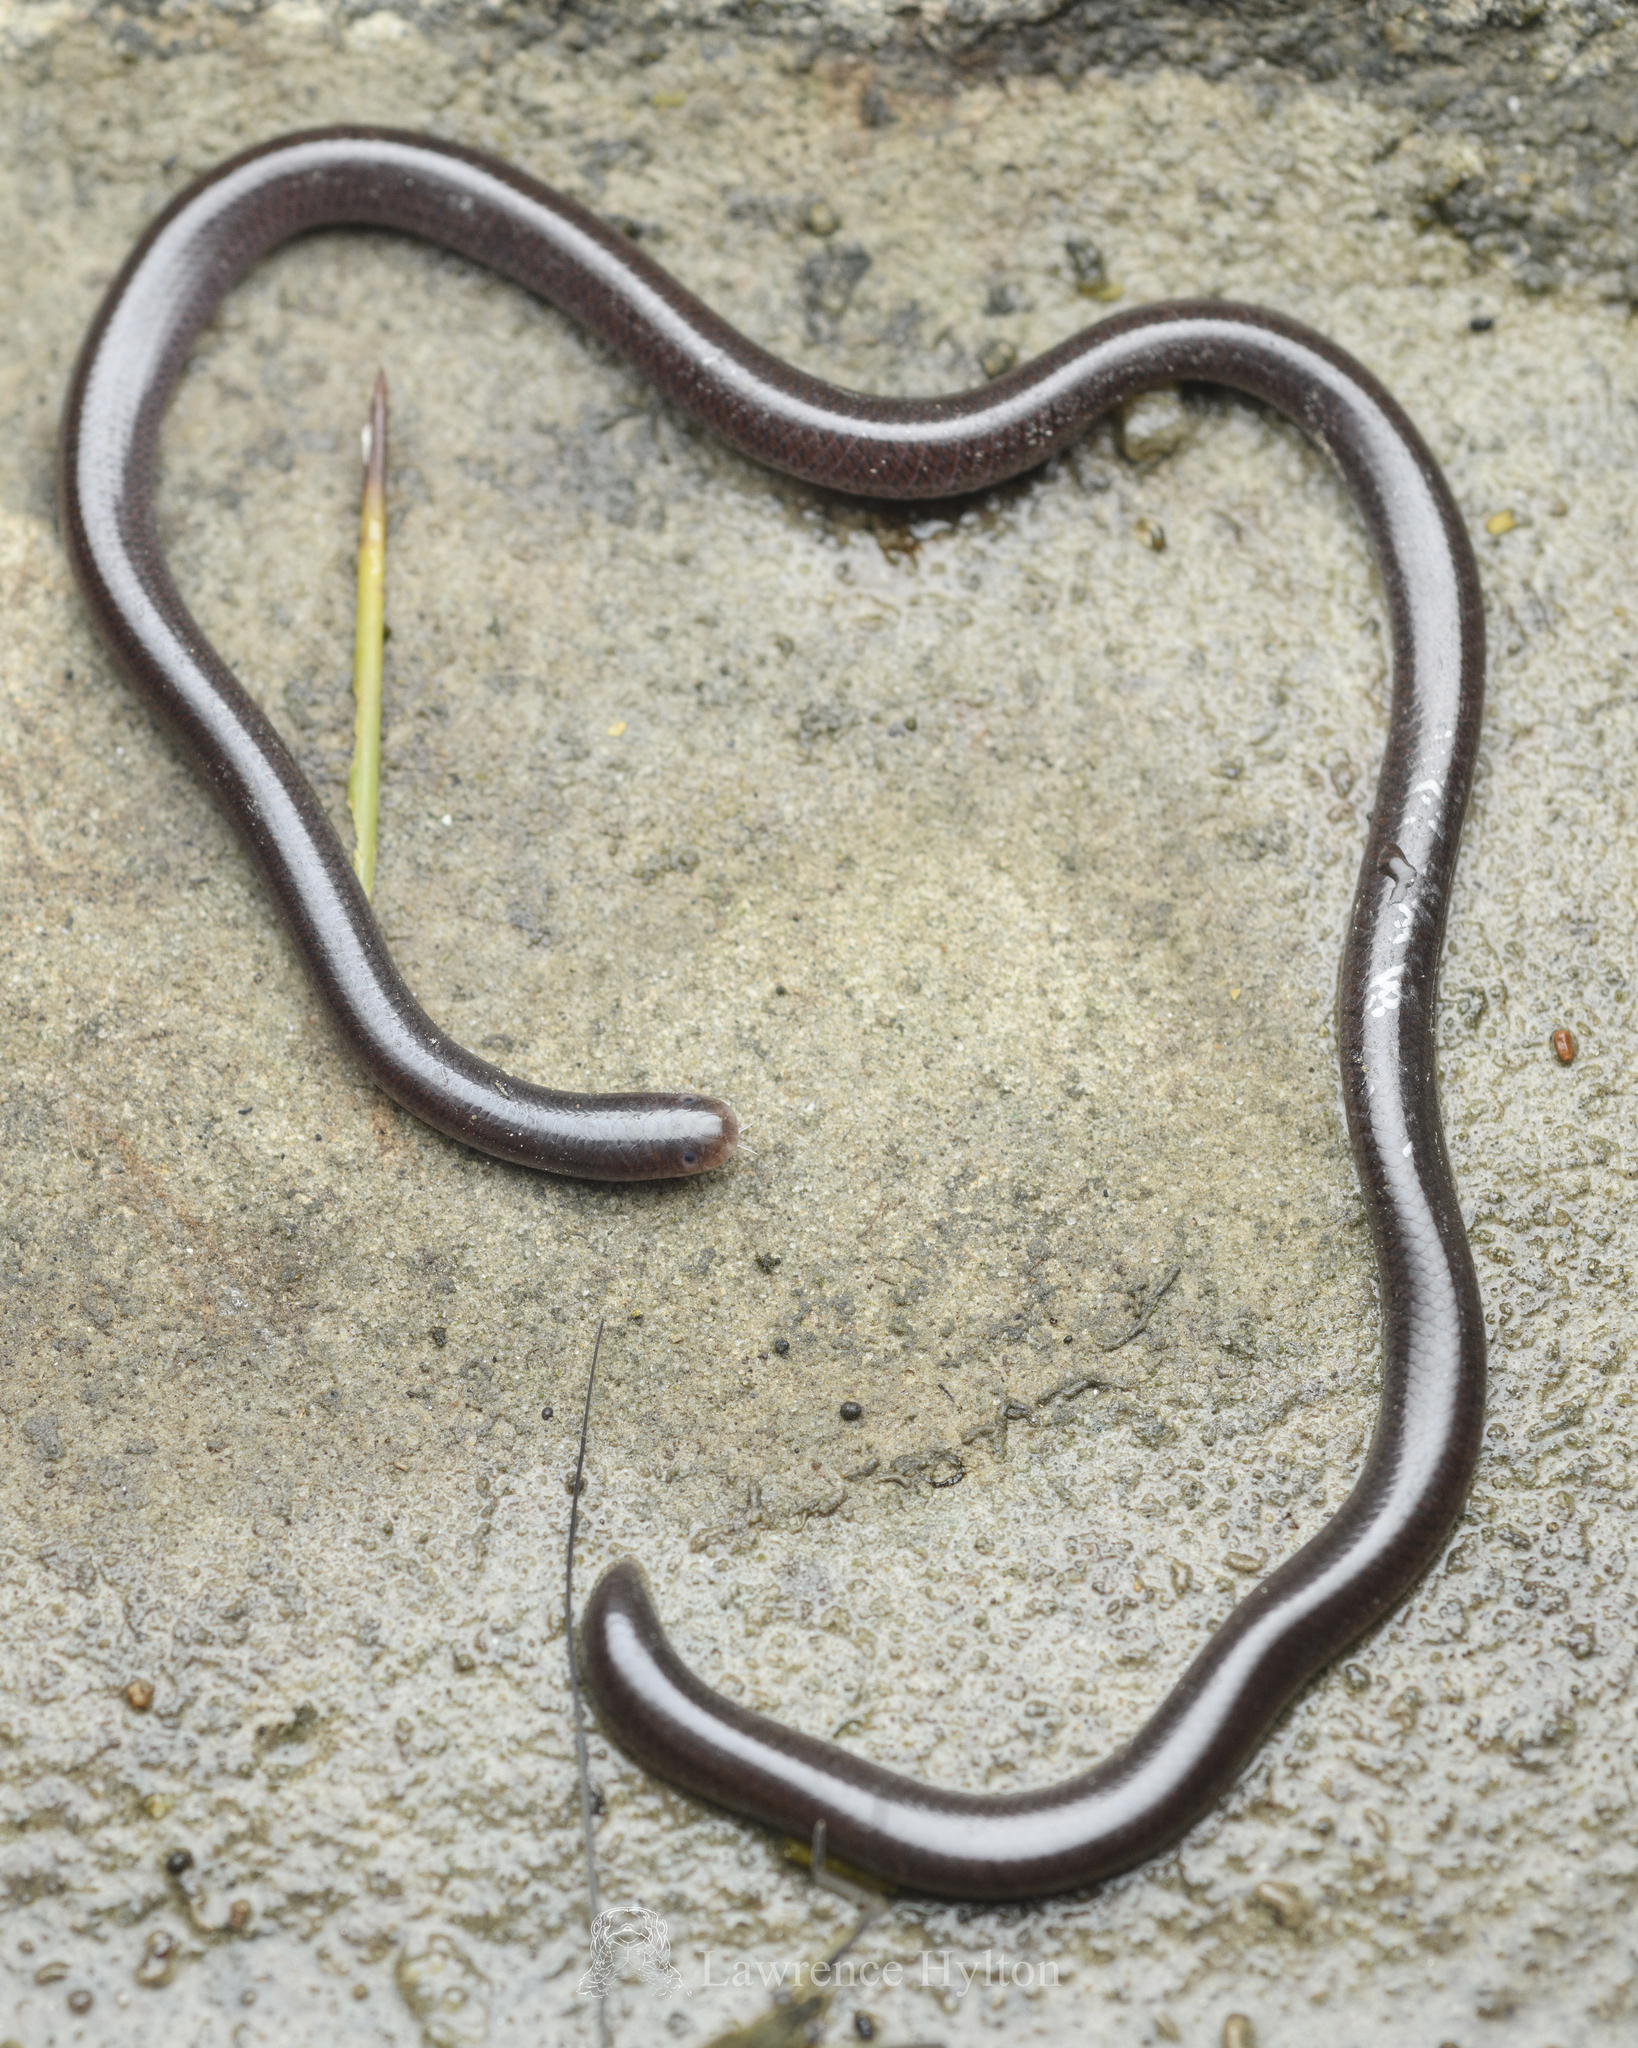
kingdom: Animalia
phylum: Chordata
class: Squamata
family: Typhlopidae
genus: Indotyphlops
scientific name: Indotyphlops braminus
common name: Brahminy blindsnake
